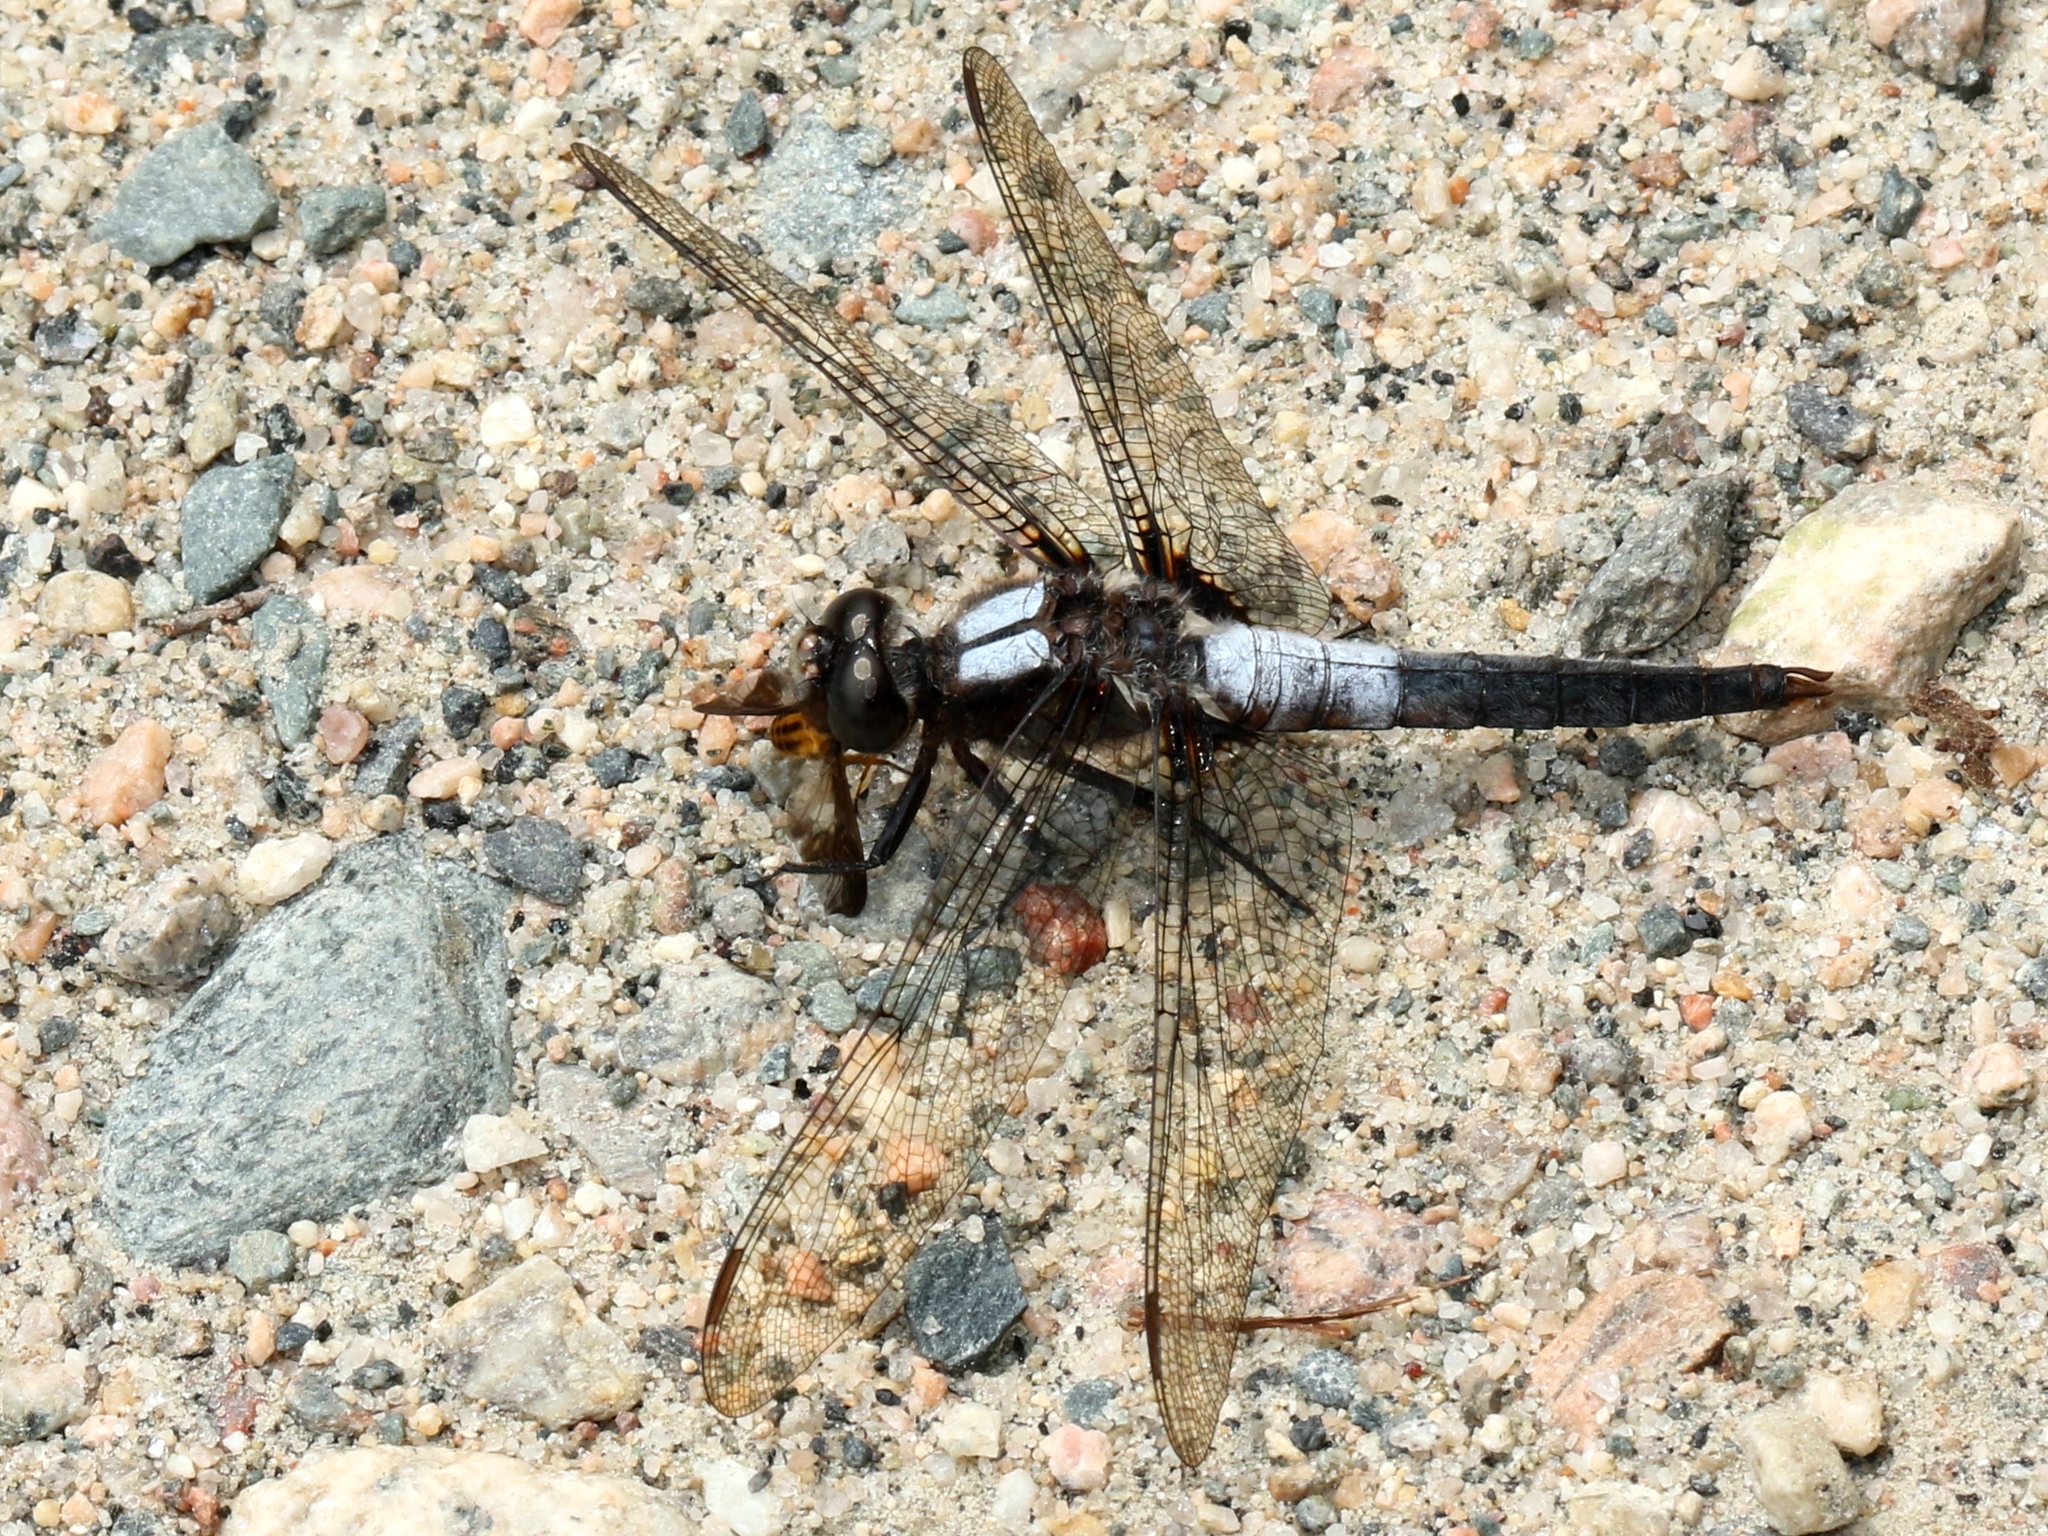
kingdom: Animalia
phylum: Arthropoda
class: Insecta
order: Odonata
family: Libellulidae
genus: Ladona
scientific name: Ladona julia
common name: Chalk-fronted corporal
